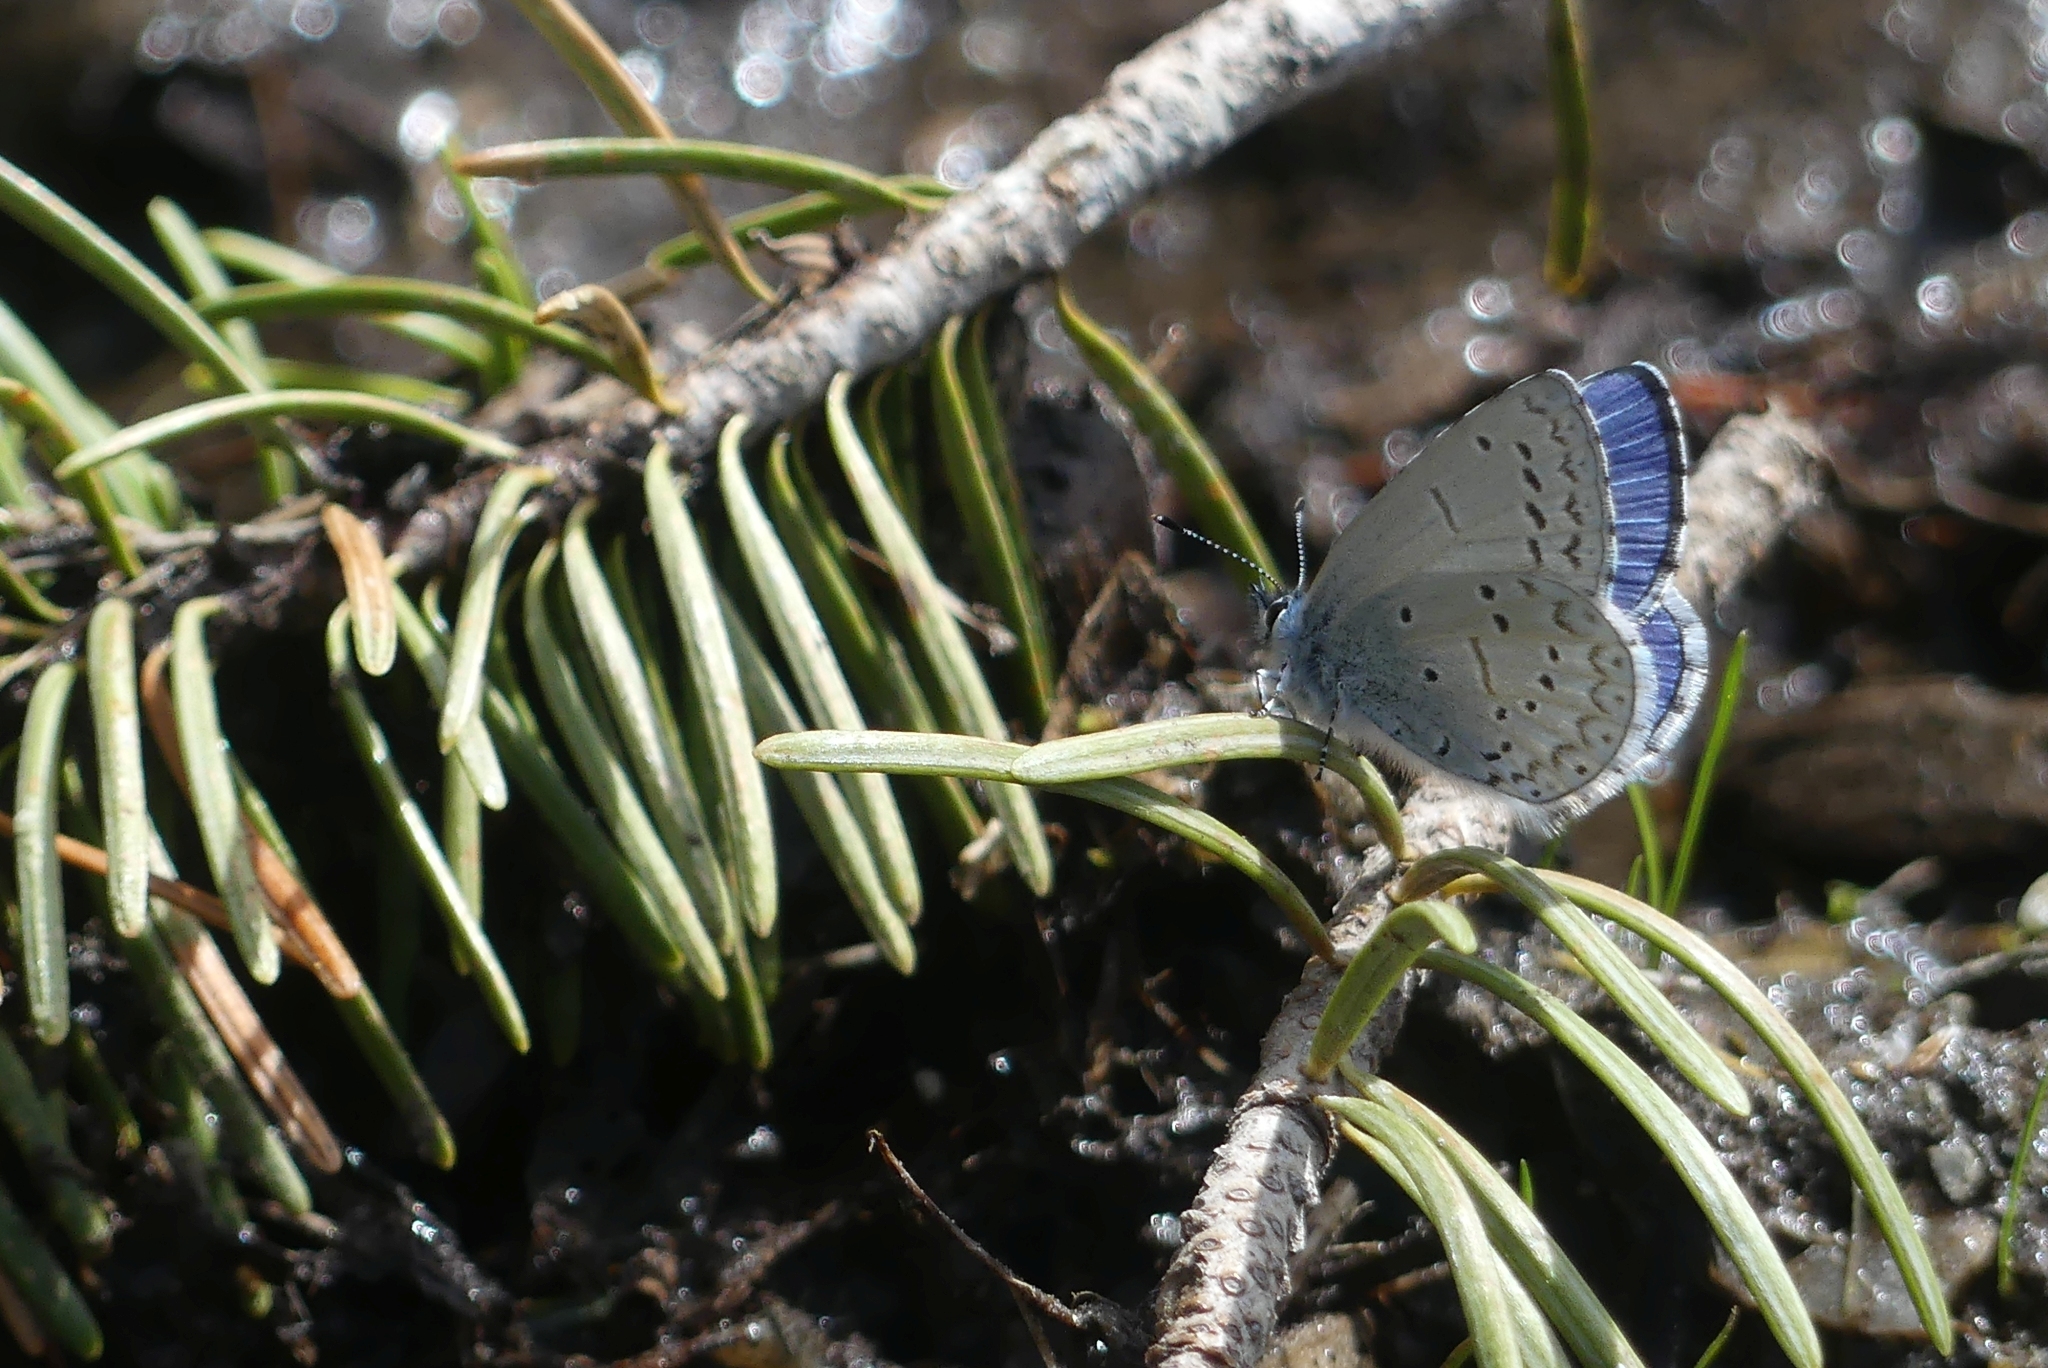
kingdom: Animalia
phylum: Arthropoda
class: Insecta
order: Lepidoptera
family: Lycaenidae
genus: Celastrina
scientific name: Celastrina ladon
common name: Spring azure
